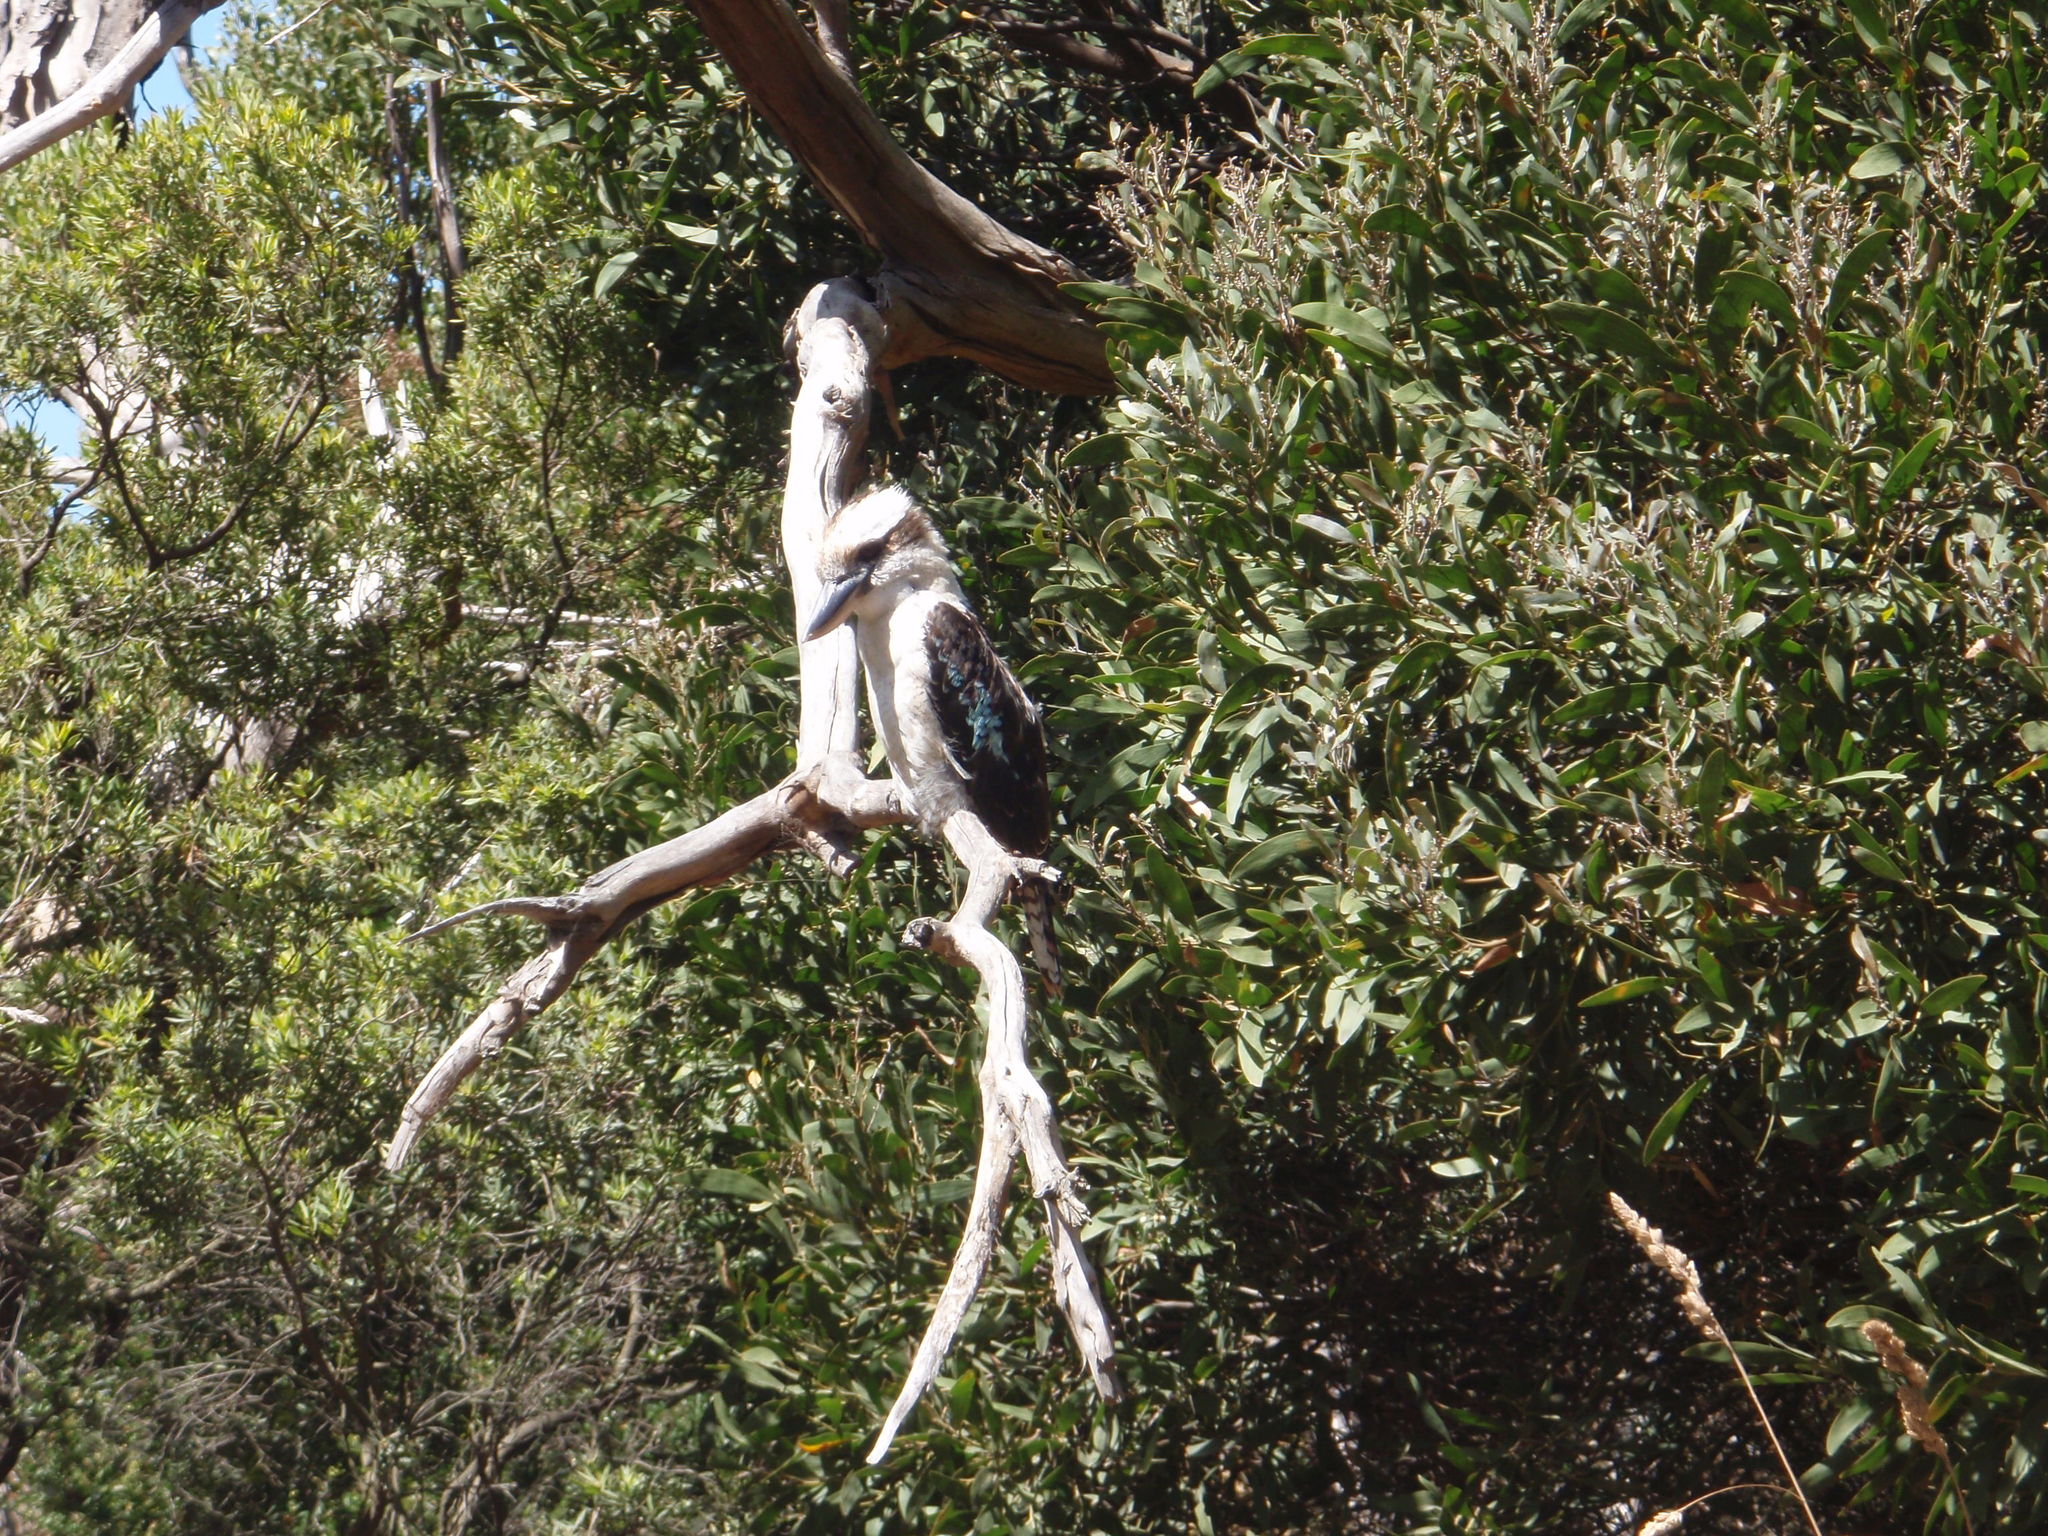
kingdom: Animalia
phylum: Chordata
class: Aves
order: Coraciiformes
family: Alcedinidae
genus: Dacelo
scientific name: Dacelo novaeguineae
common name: Laughing kookaburra
